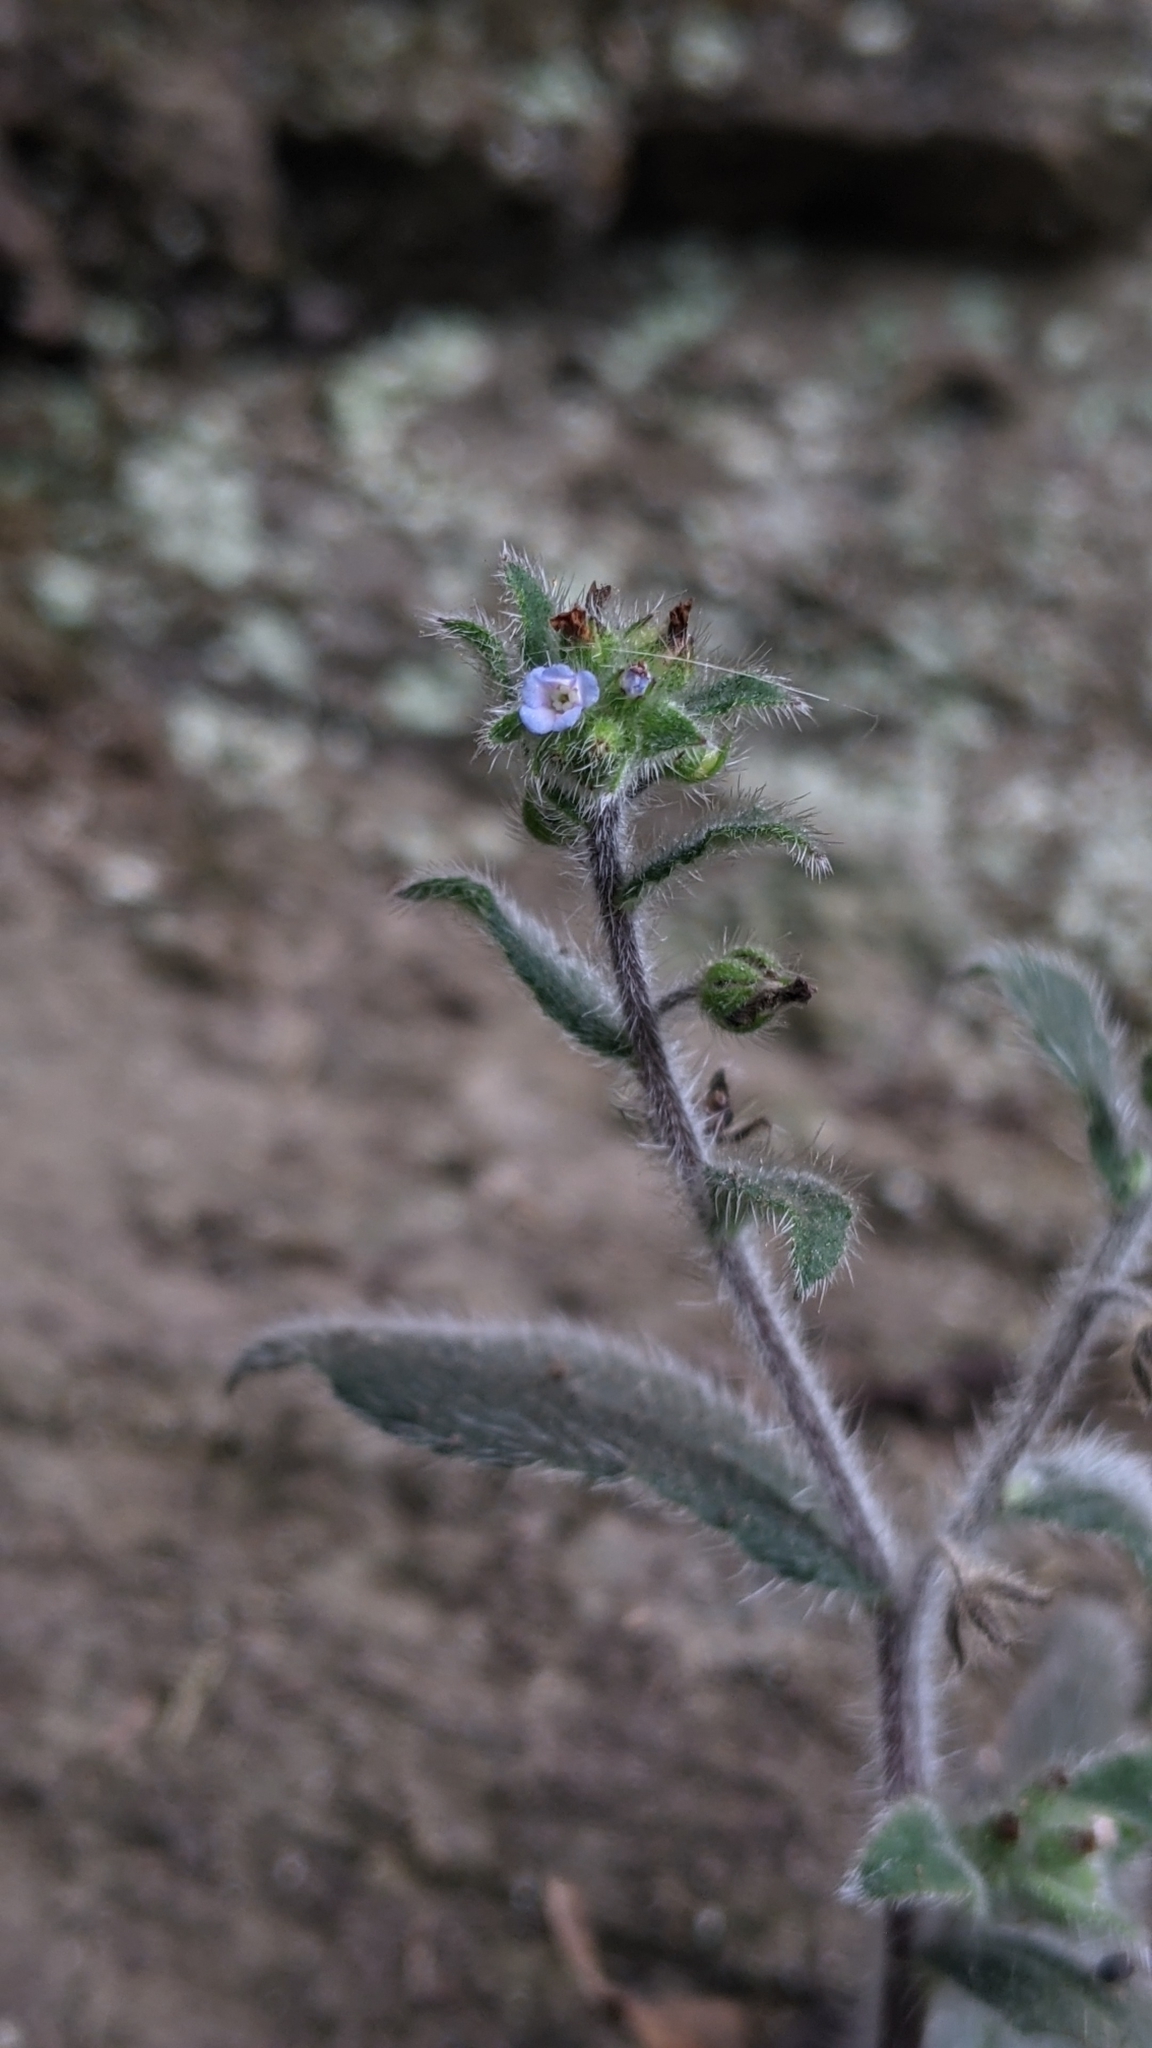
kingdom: Plantae
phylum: Tracheophyta
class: Magnoliopsida
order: Boraginales
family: Boraginaceae
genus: Thyrocarpus
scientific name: Thyrocarpus sampsonii
